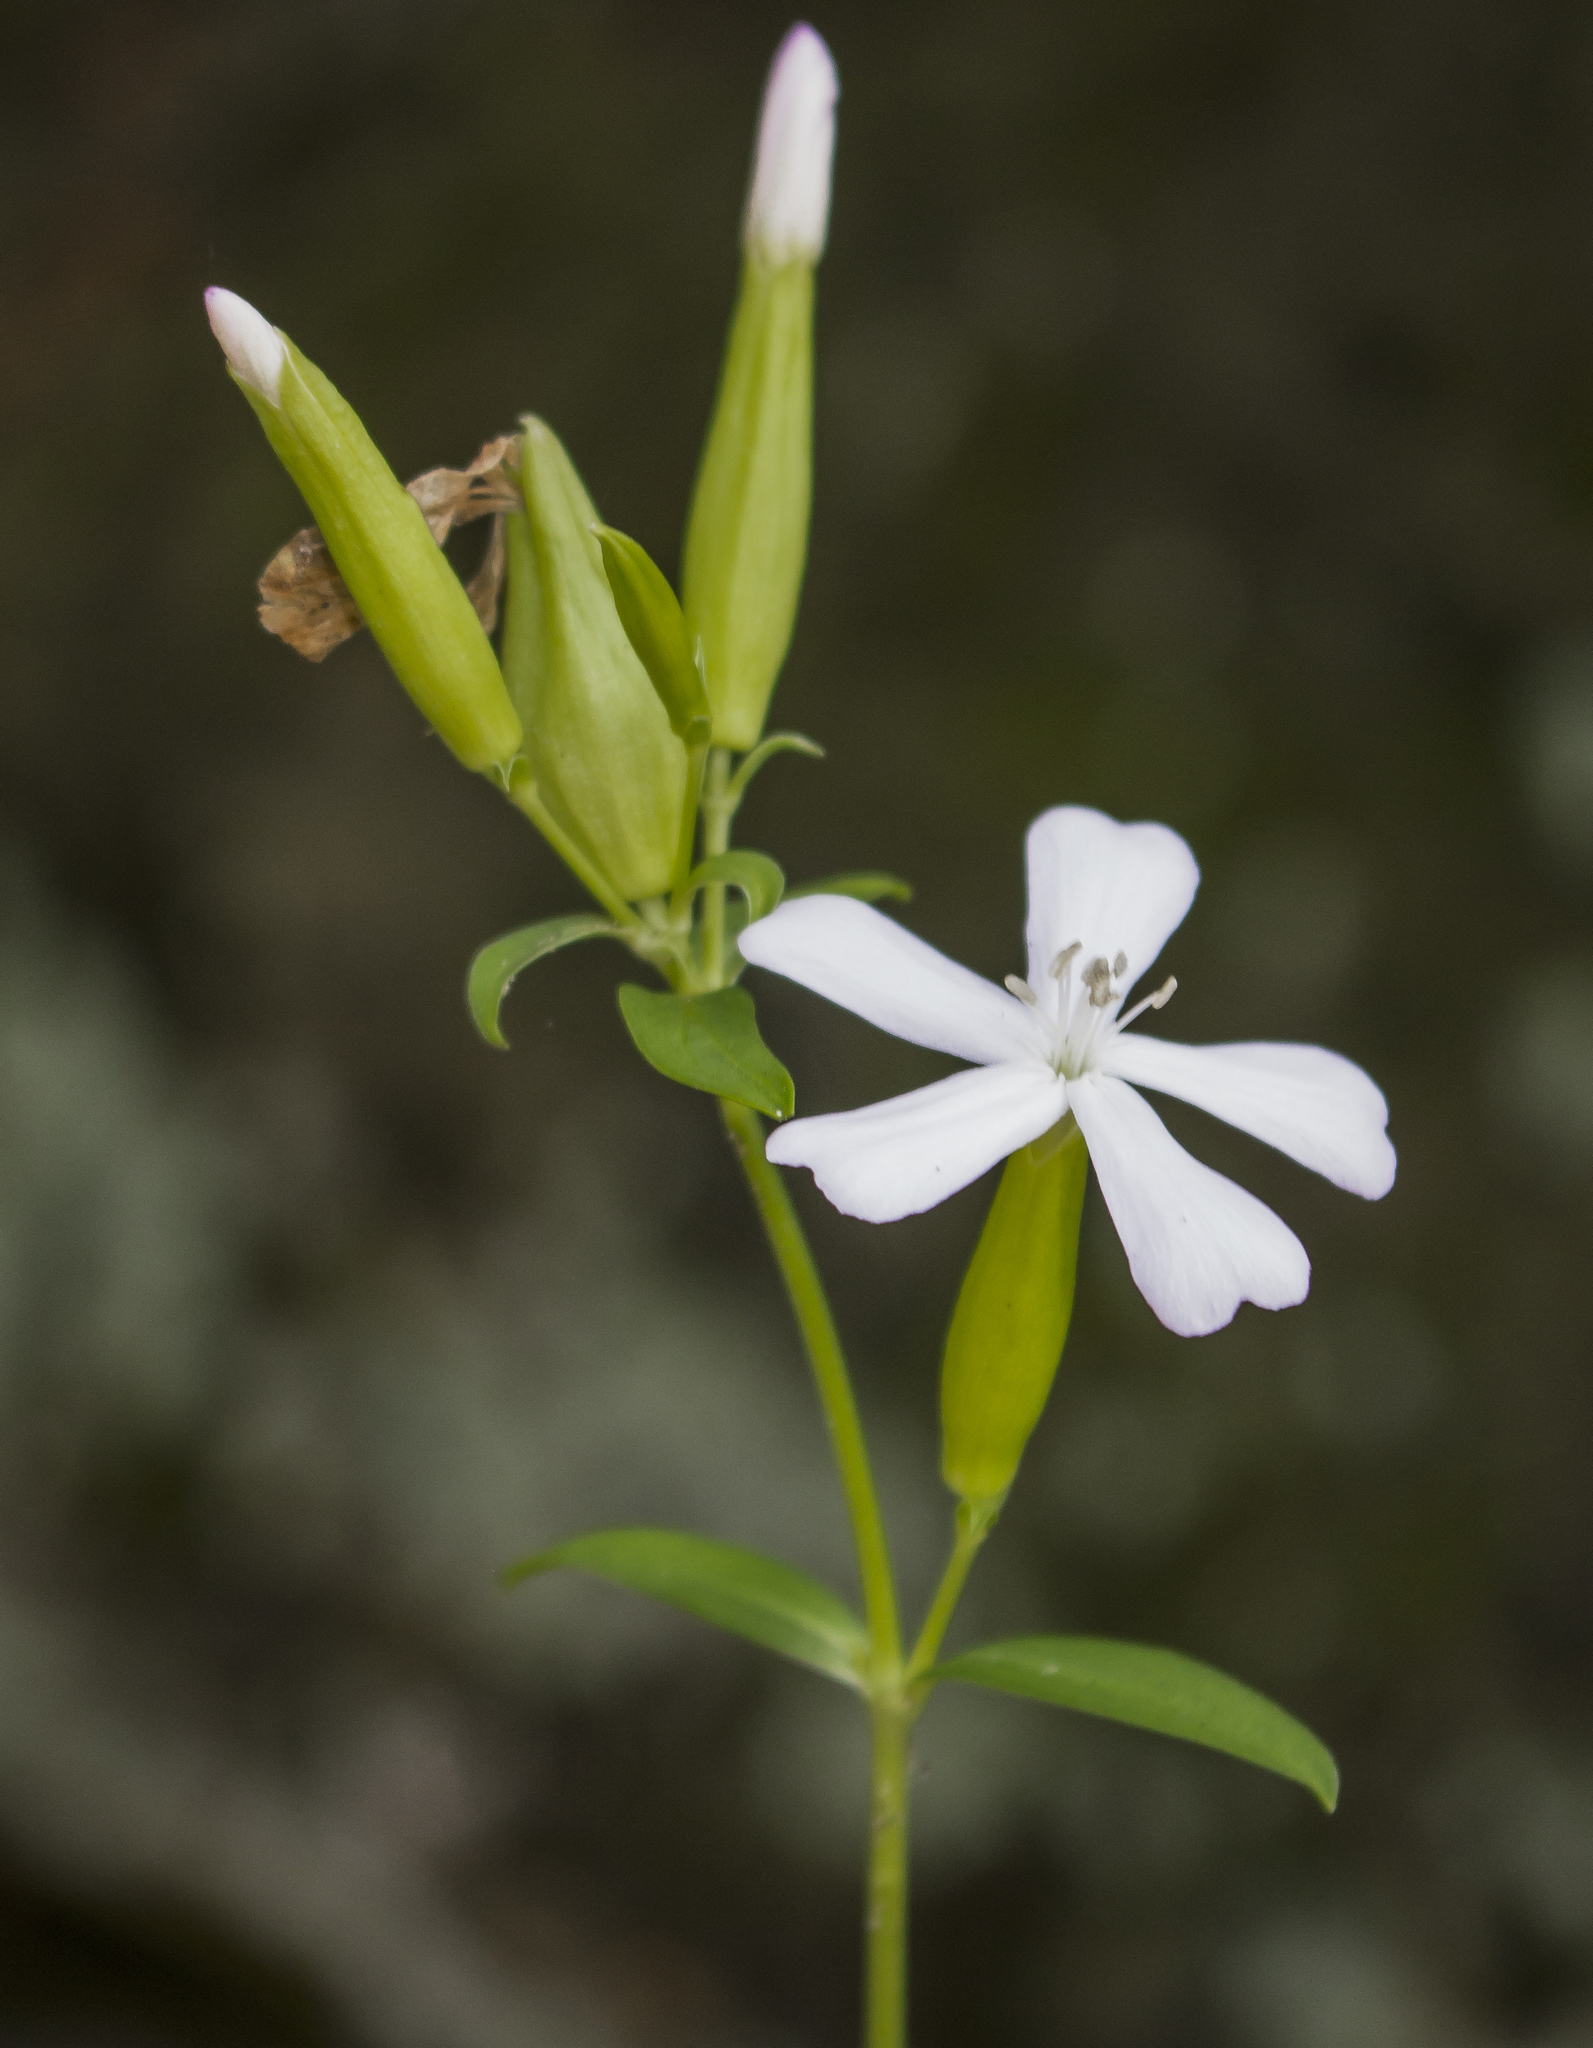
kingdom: Plantae
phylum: Tracheophyta
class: Magnoliopsida
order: Caryophyllales
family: Caryophyllaceae
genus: Saponaria
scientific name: Saponaria officinalis
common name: Soapwort
